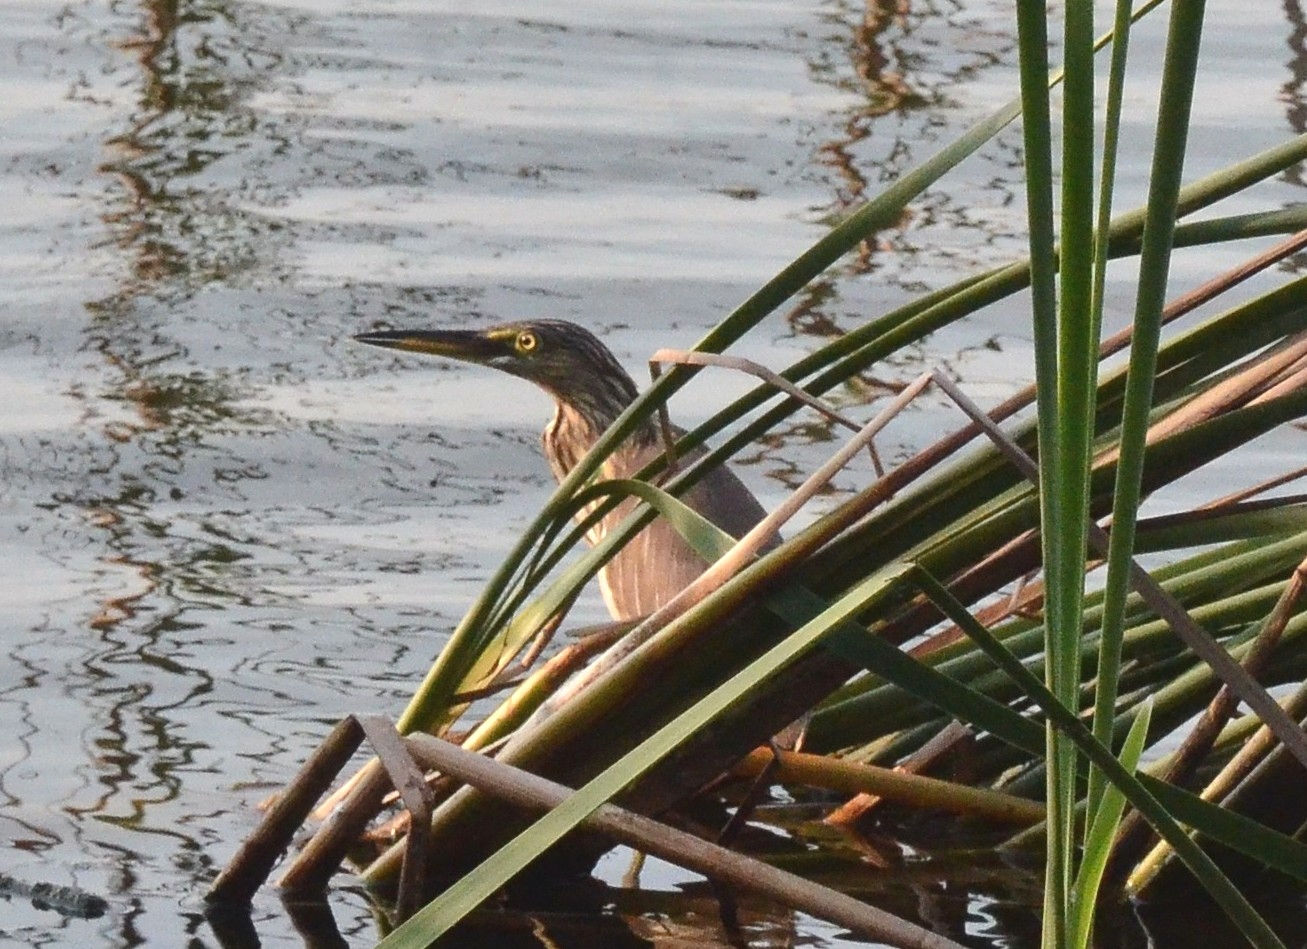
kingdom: Animalia
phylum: Chordata
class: Aves
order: Pelecaniformes
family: Ardeidae
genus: Ardeola
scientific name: Ardeola grayii
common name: Indian pond heron
